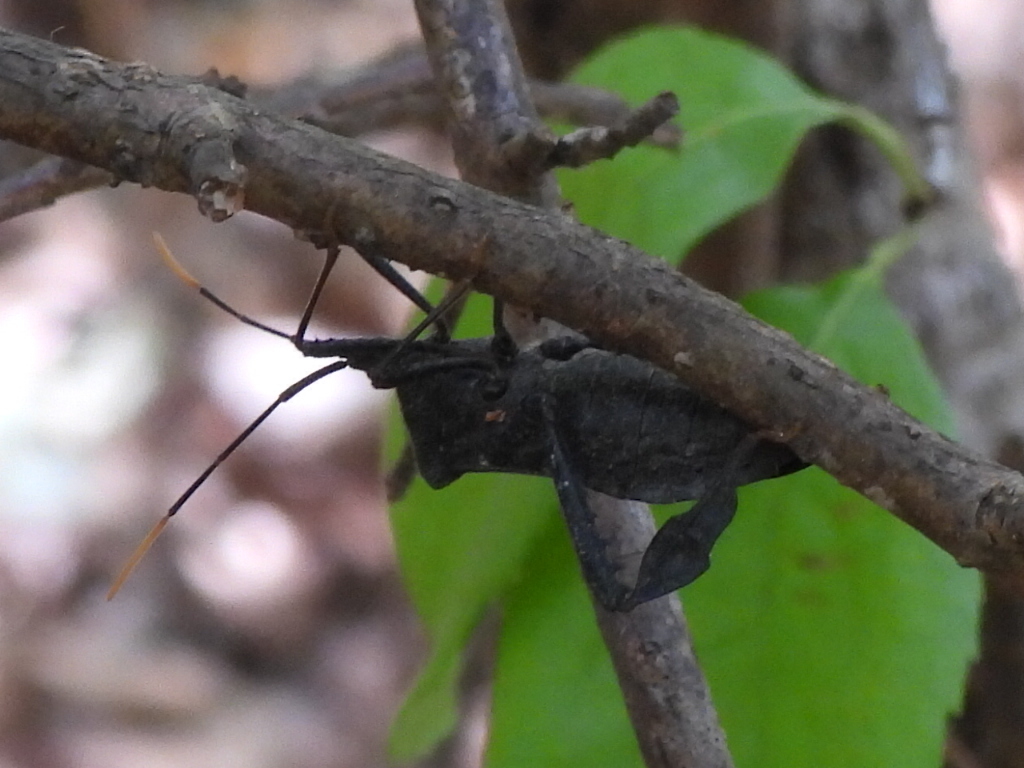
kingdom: Animalia
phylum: Arthropoda
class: Insecta
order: Hemiptera
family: Coreidae
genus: Acanthocephala
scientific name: Acanthocephala terminalis
